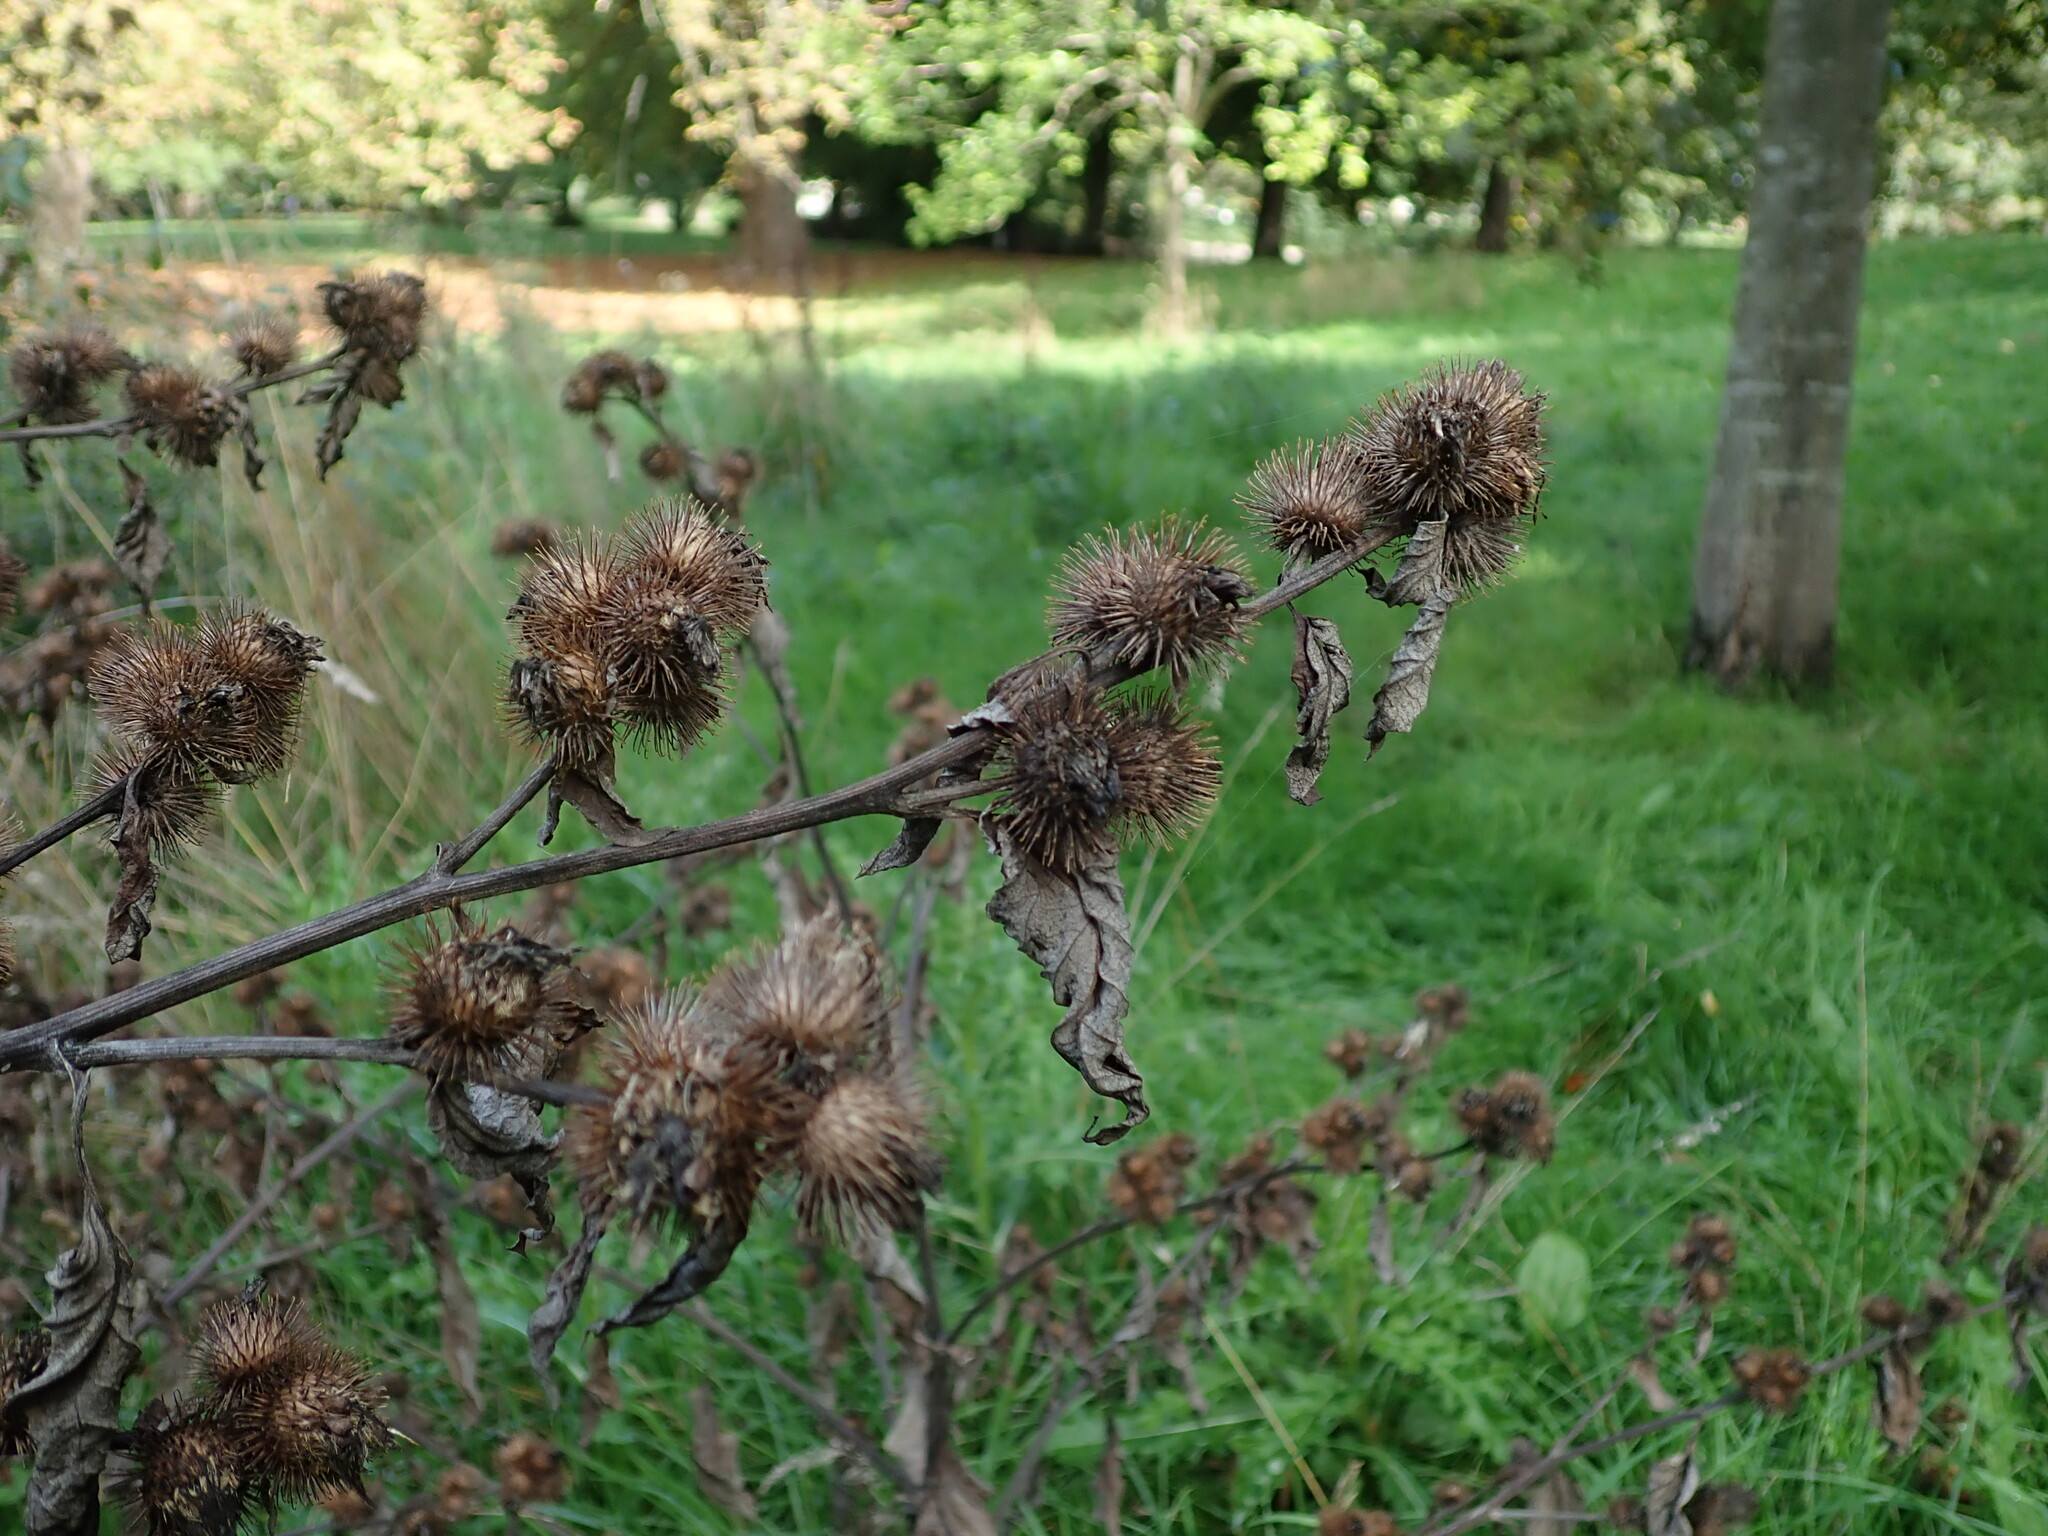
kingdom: Plantae
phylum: Tracheophyta
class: Magnoliopsida
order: Asterales
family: Asteraceae
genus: Arctium
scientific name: Arctium minus
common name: Lesser burdock
